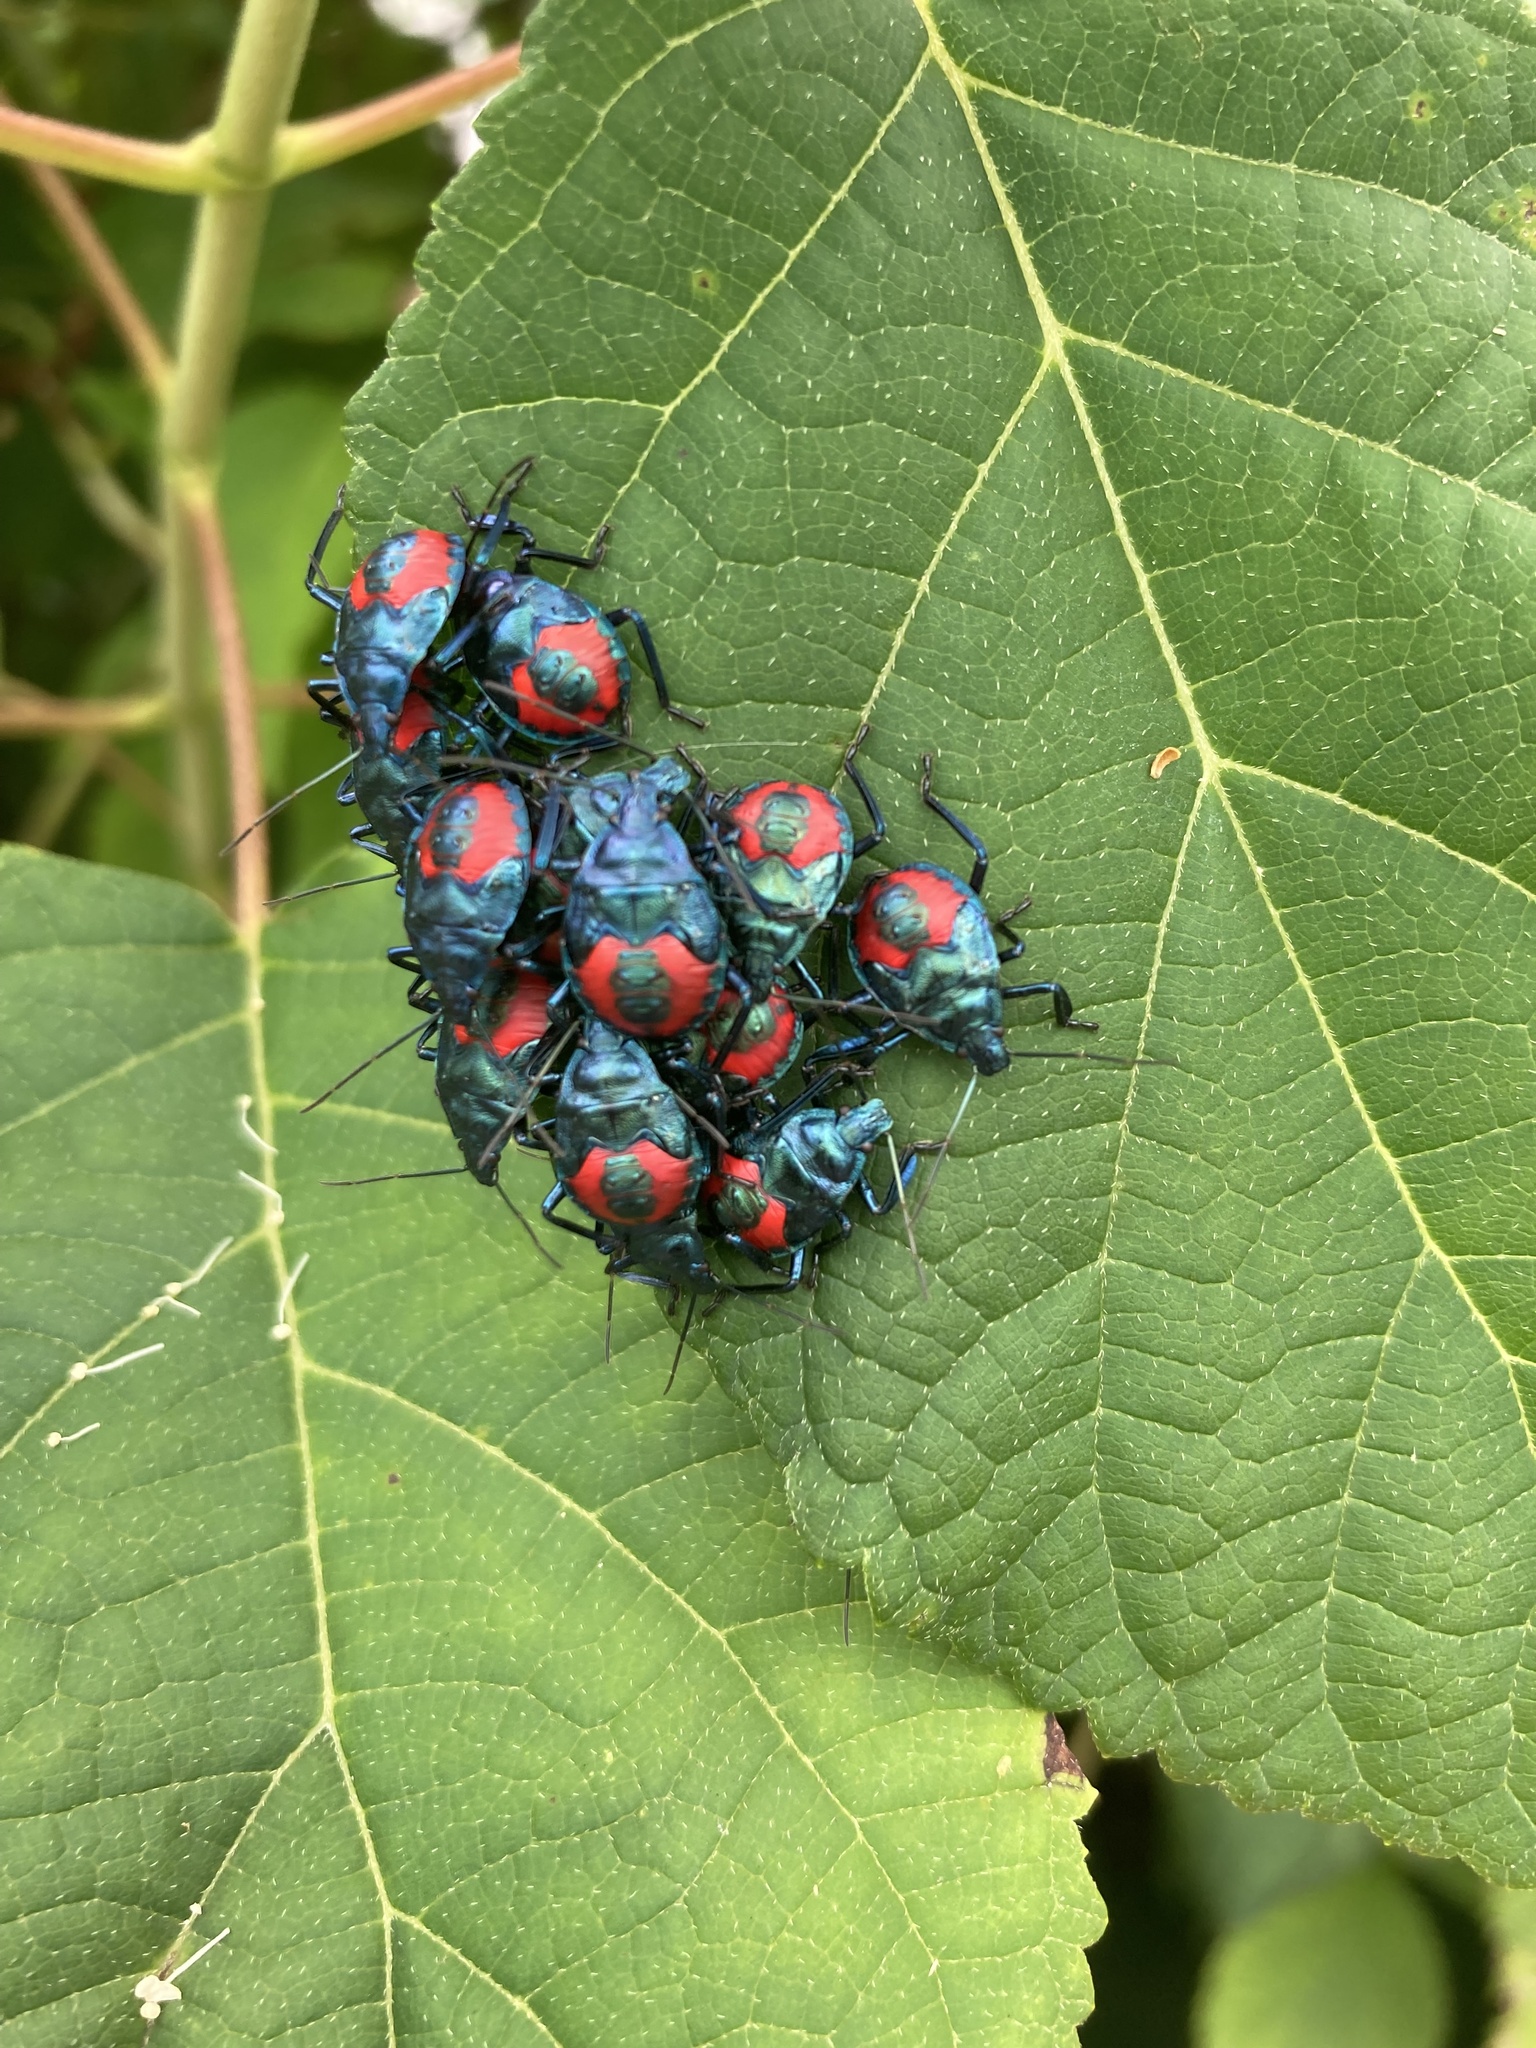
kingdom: Animalia
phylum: Arthropoda
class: Insecta
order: Hemiptera
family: Pentatomidae
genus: Euthyrhynchus
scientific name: Euthyrhynchus floridanus
